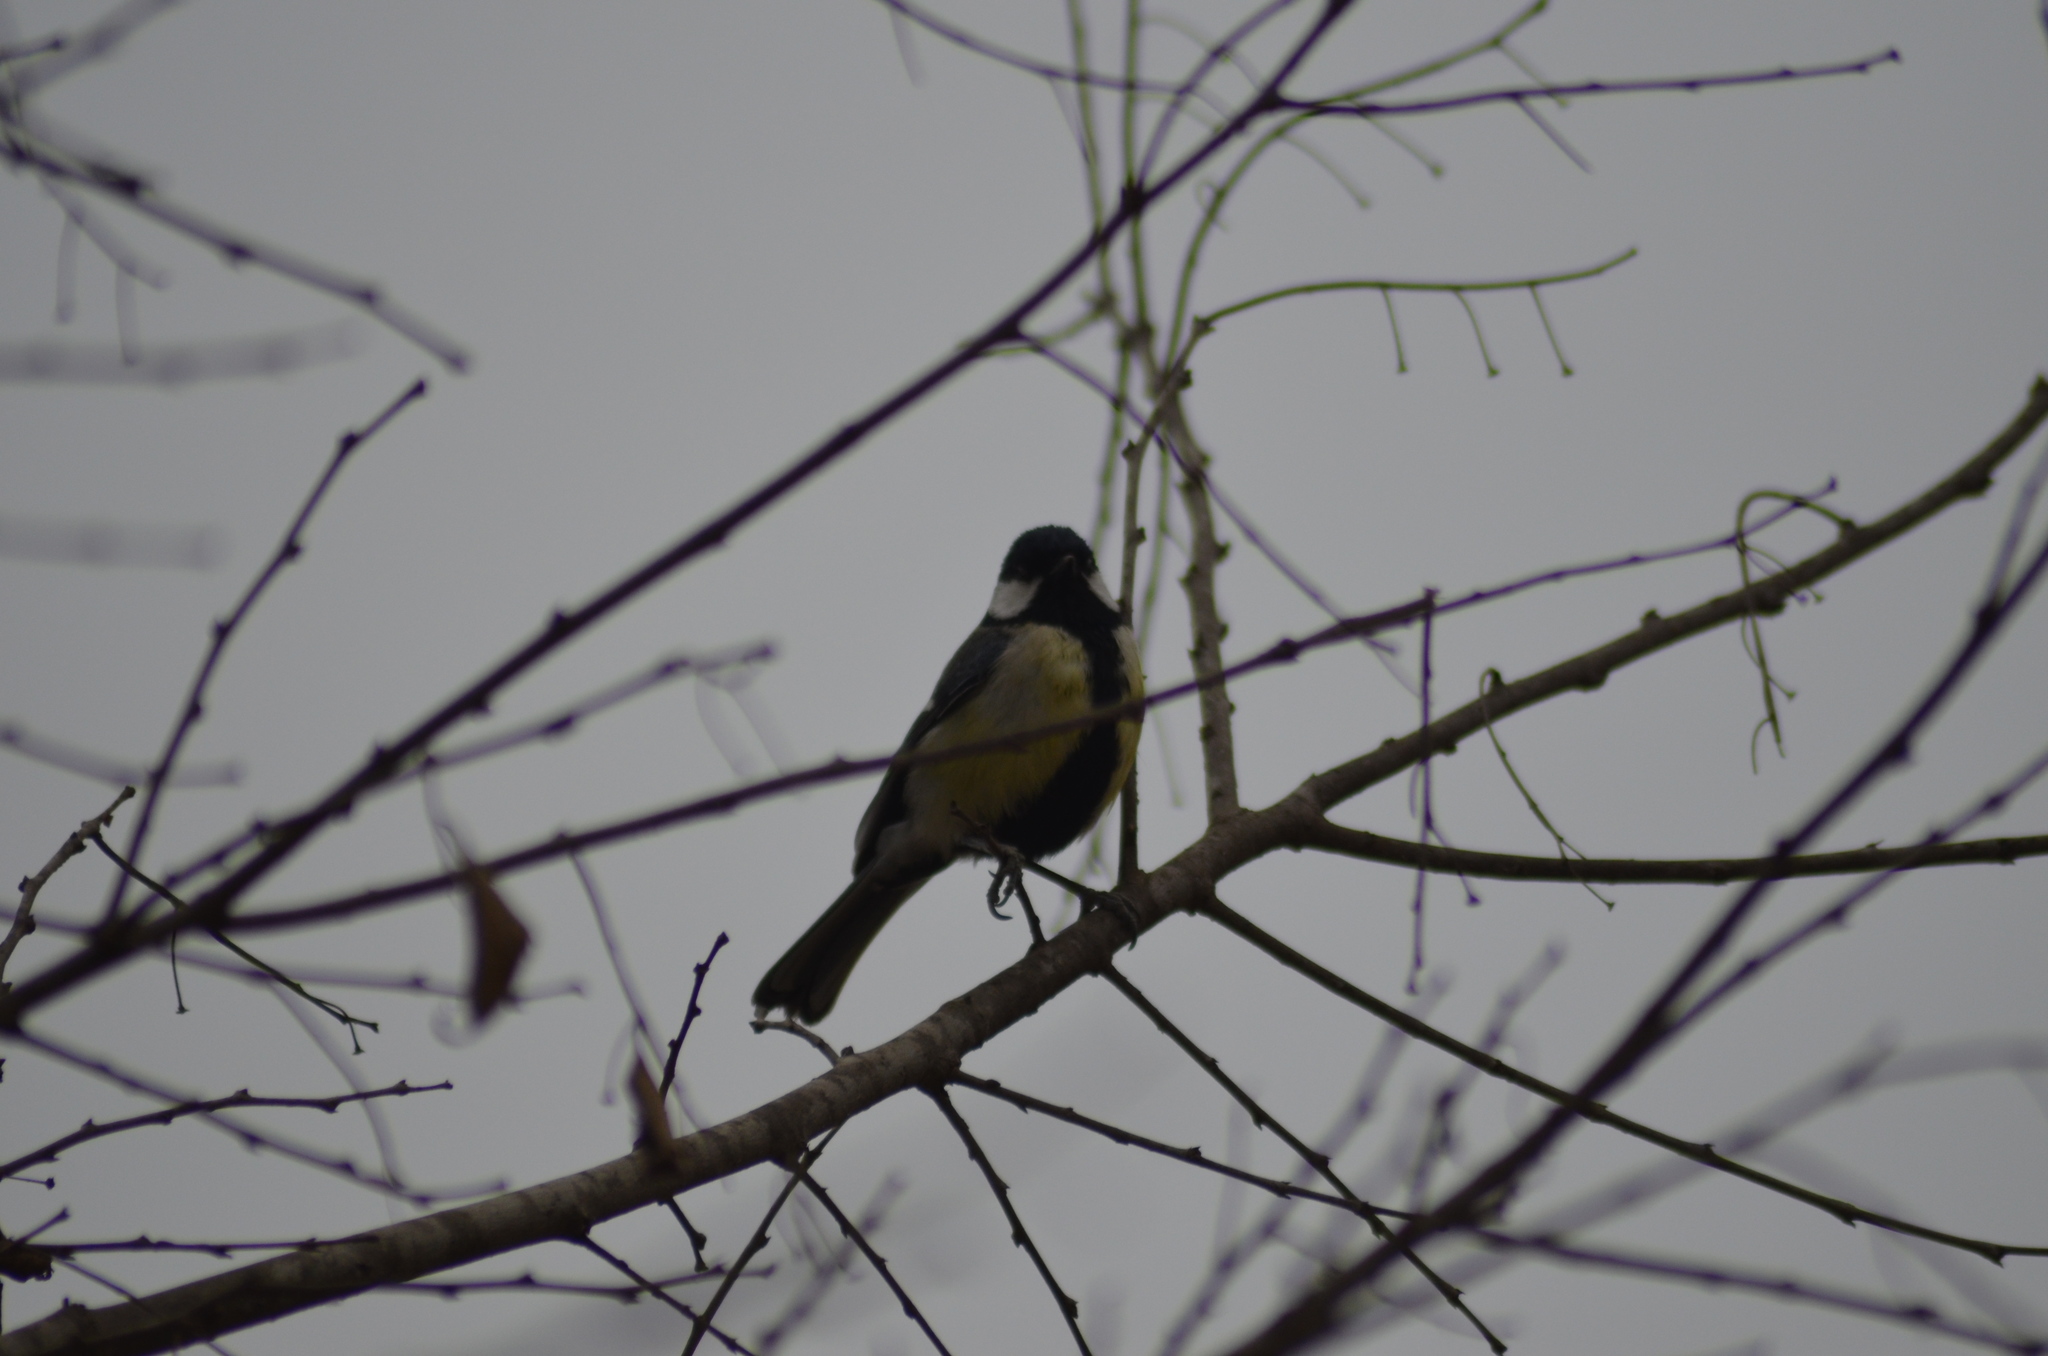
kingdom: Animalia
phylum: Chordata
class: Aves
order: Passeriformes
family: Paridae
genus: Parus
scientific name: Parus major
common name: Great tit
